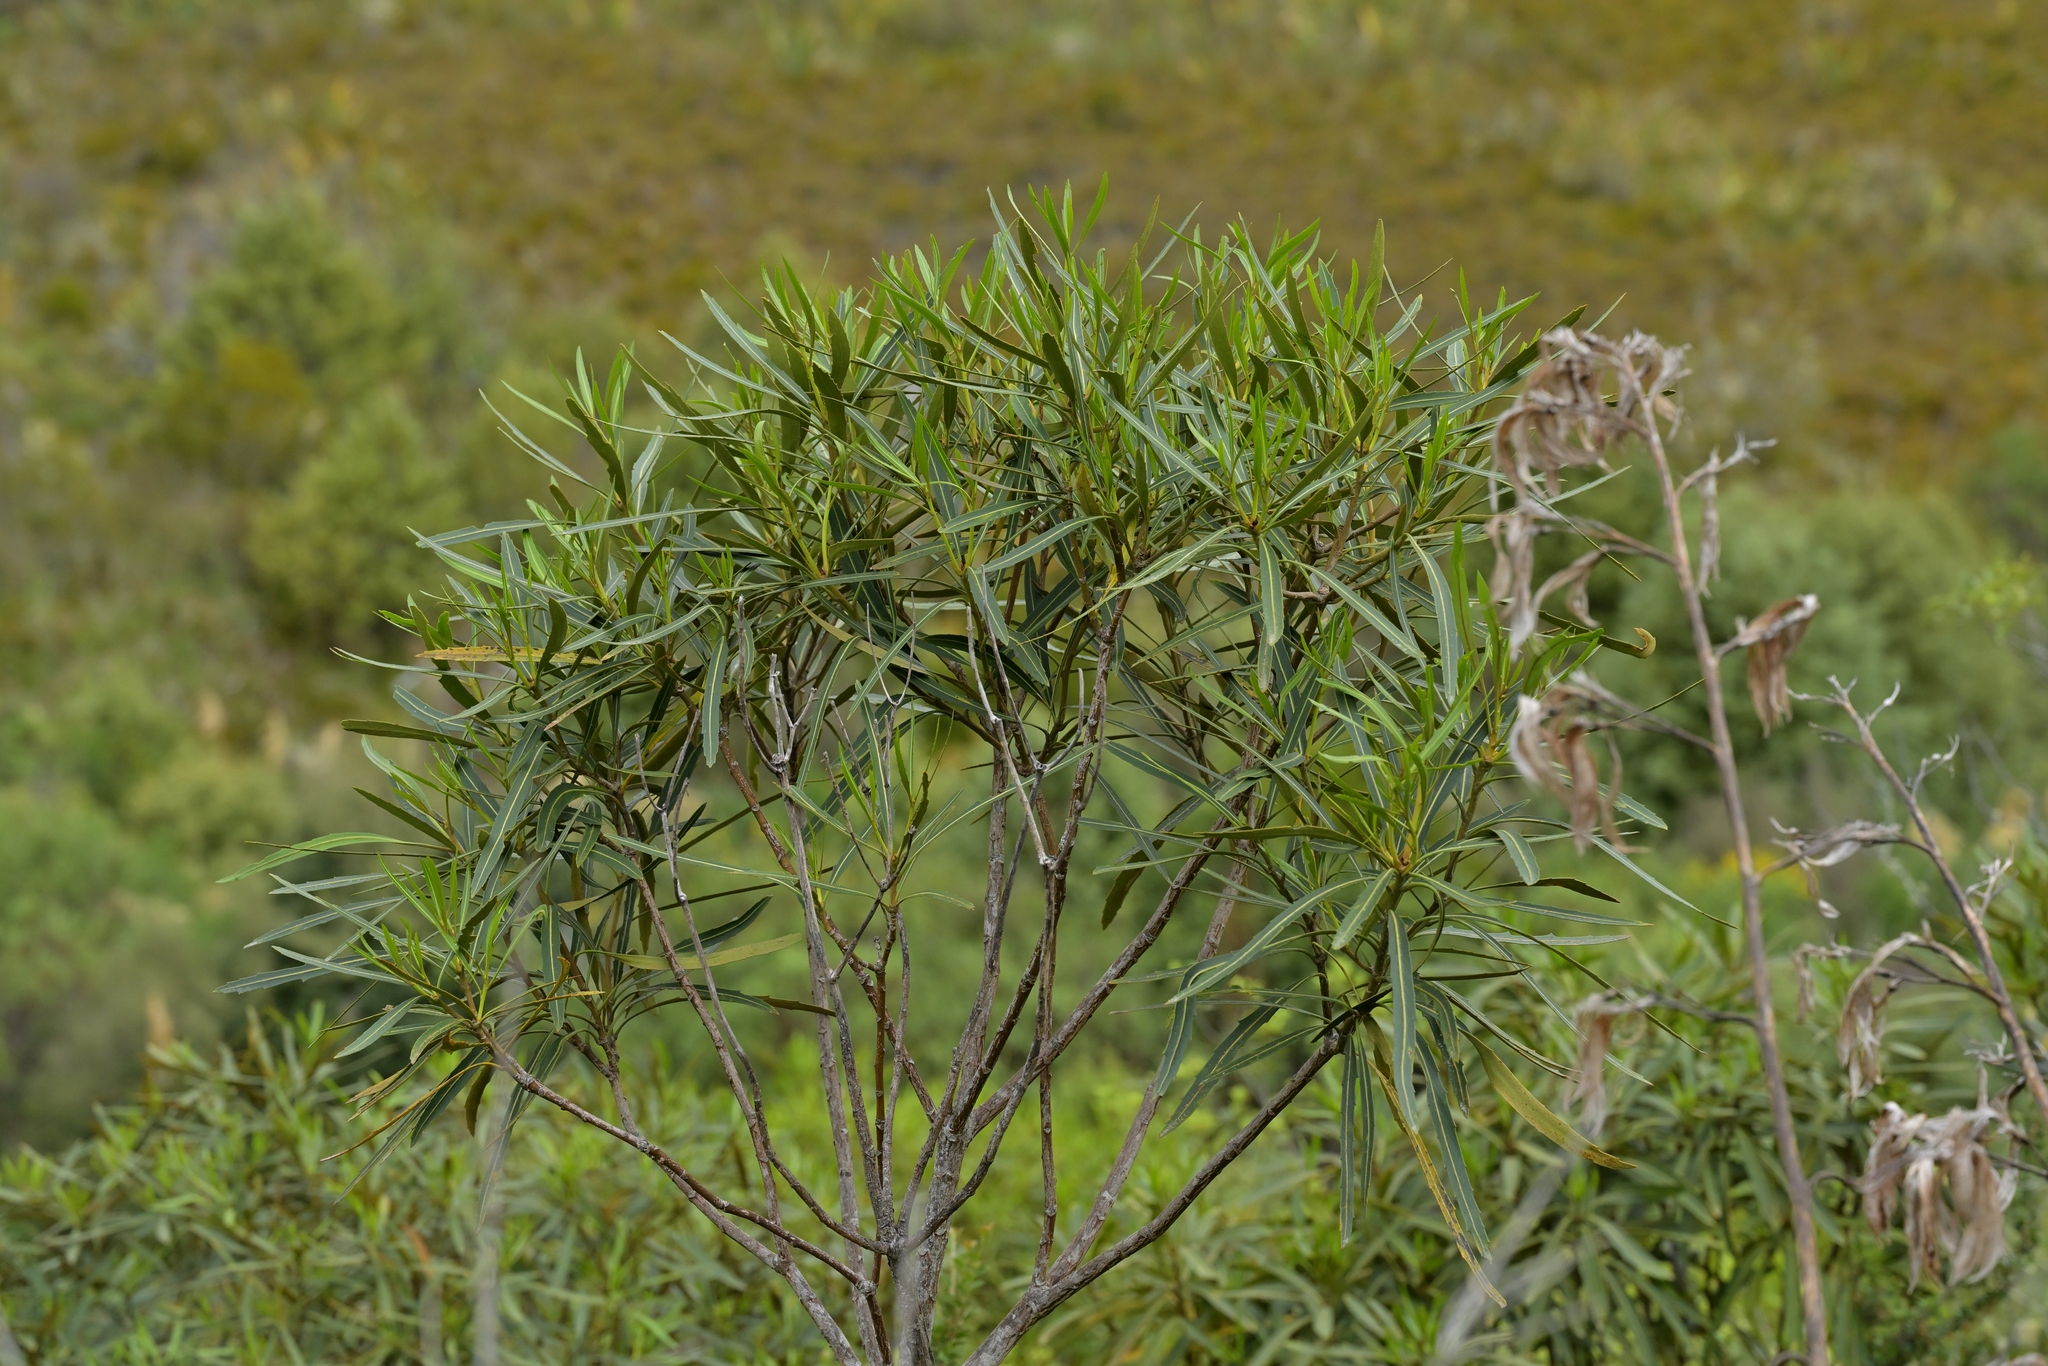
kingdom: Plantae
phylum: Tracheophyta
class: Magnoliopsida
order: Apiales
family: Araliaceae
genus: Pseudopanax
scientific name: Pseudopanax crassifolius
